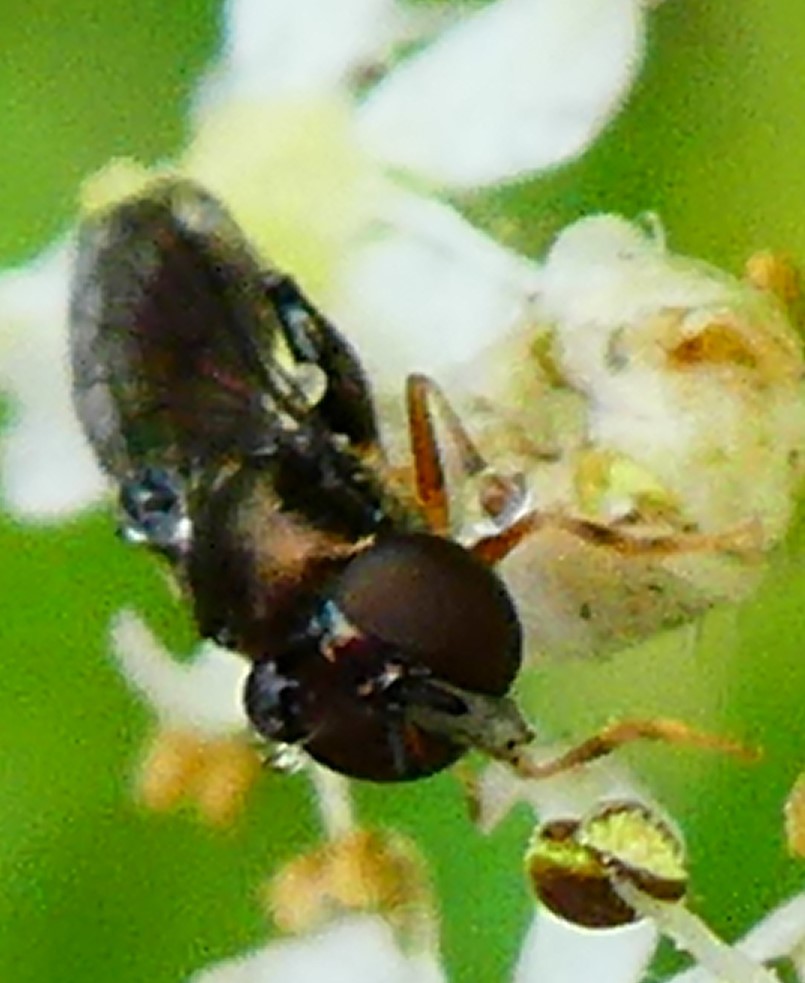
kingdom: Animalia
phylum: Arthropoda
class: Insecta
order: Diptera
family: Syrphidae
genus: Neoascia
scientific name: Neoascia
